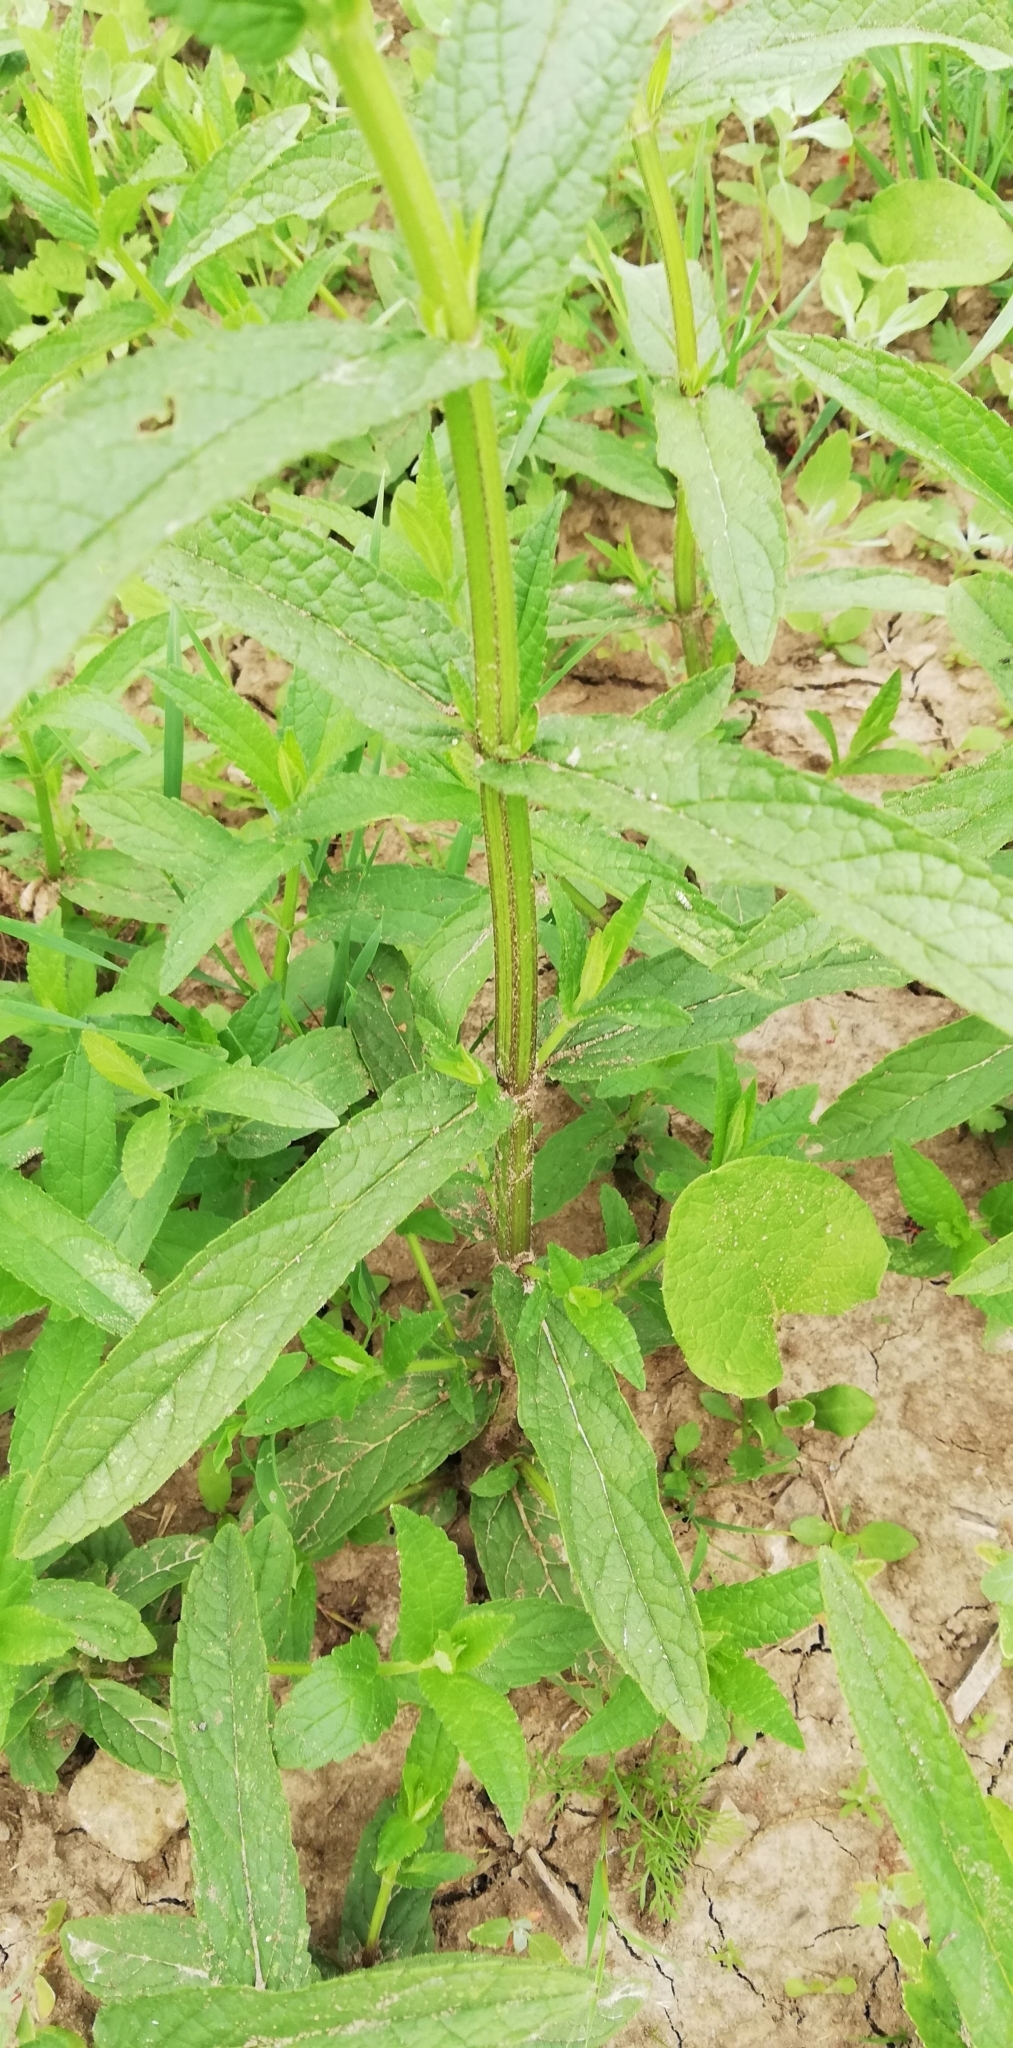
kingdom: Plantae
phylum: Tracheophyta
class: Magnoliopsida
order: Lamiales
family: Lamiaceae
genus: Stachys
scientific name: Stachys palustris
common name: Marsh woundwort
